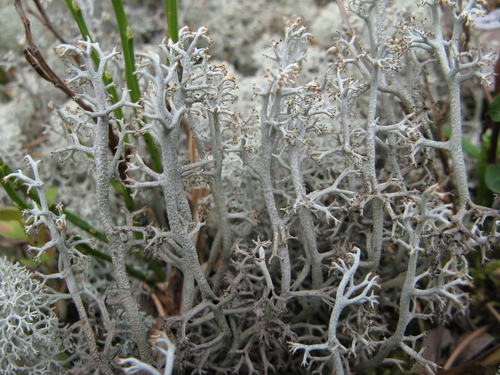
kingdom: Fungi
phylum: Ascomycota
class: Lecanoromycetes
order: Lecanorales
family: Cladoniaceae
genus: Cladonia
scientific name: Cladonia stygia
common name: Black-footed reindeer lichen
